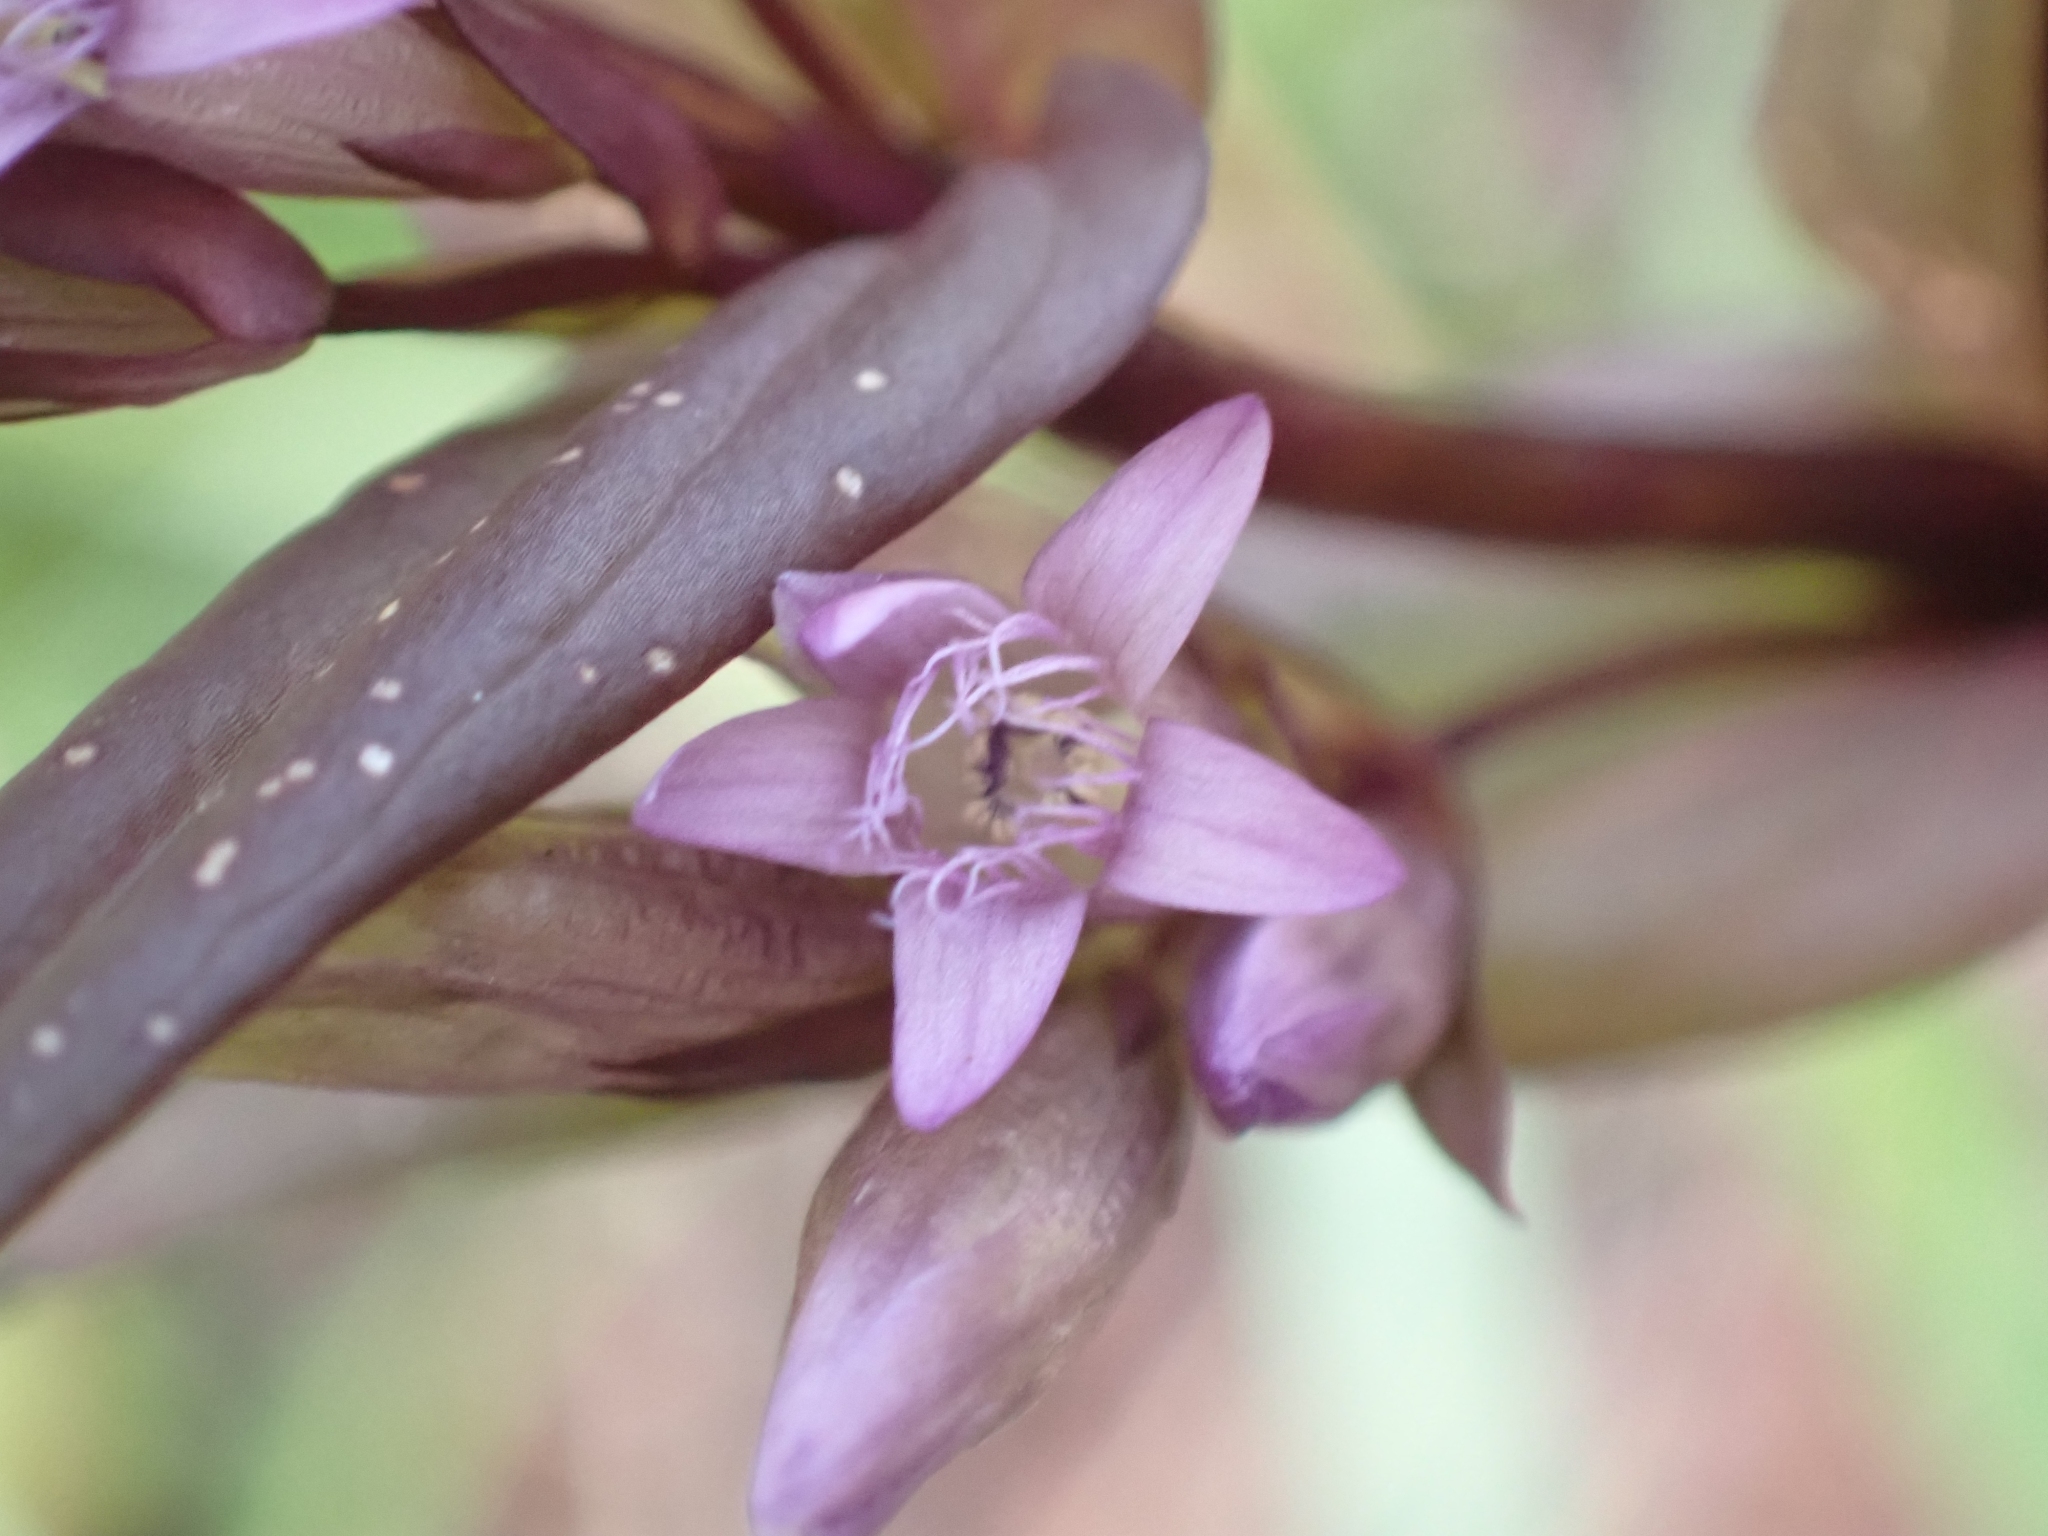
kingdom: Plantae
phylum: Tracheophyta
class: Magnoliopsida
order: Gentianales
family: Gentianaceae
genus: Gentianella
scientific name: Gentianella amarella
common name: Autumn gentian
